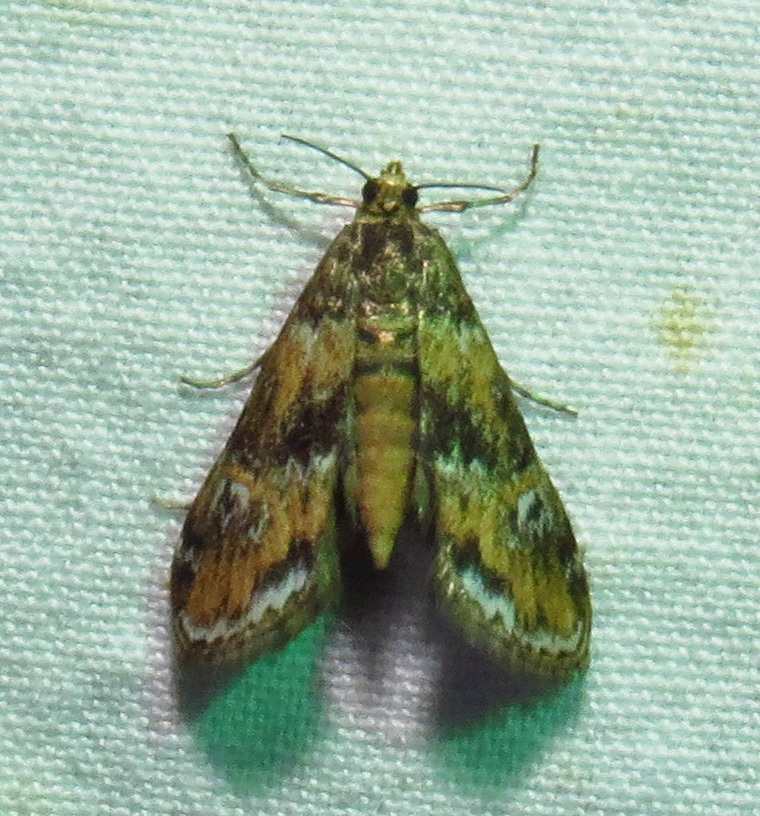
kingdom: Animalia
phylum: Arthropoda
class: Insecta
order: Lepidoptera
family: Crambidae
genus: Elophila
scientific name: Elophila obliteralis
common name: Waterlily leafcutter moth
